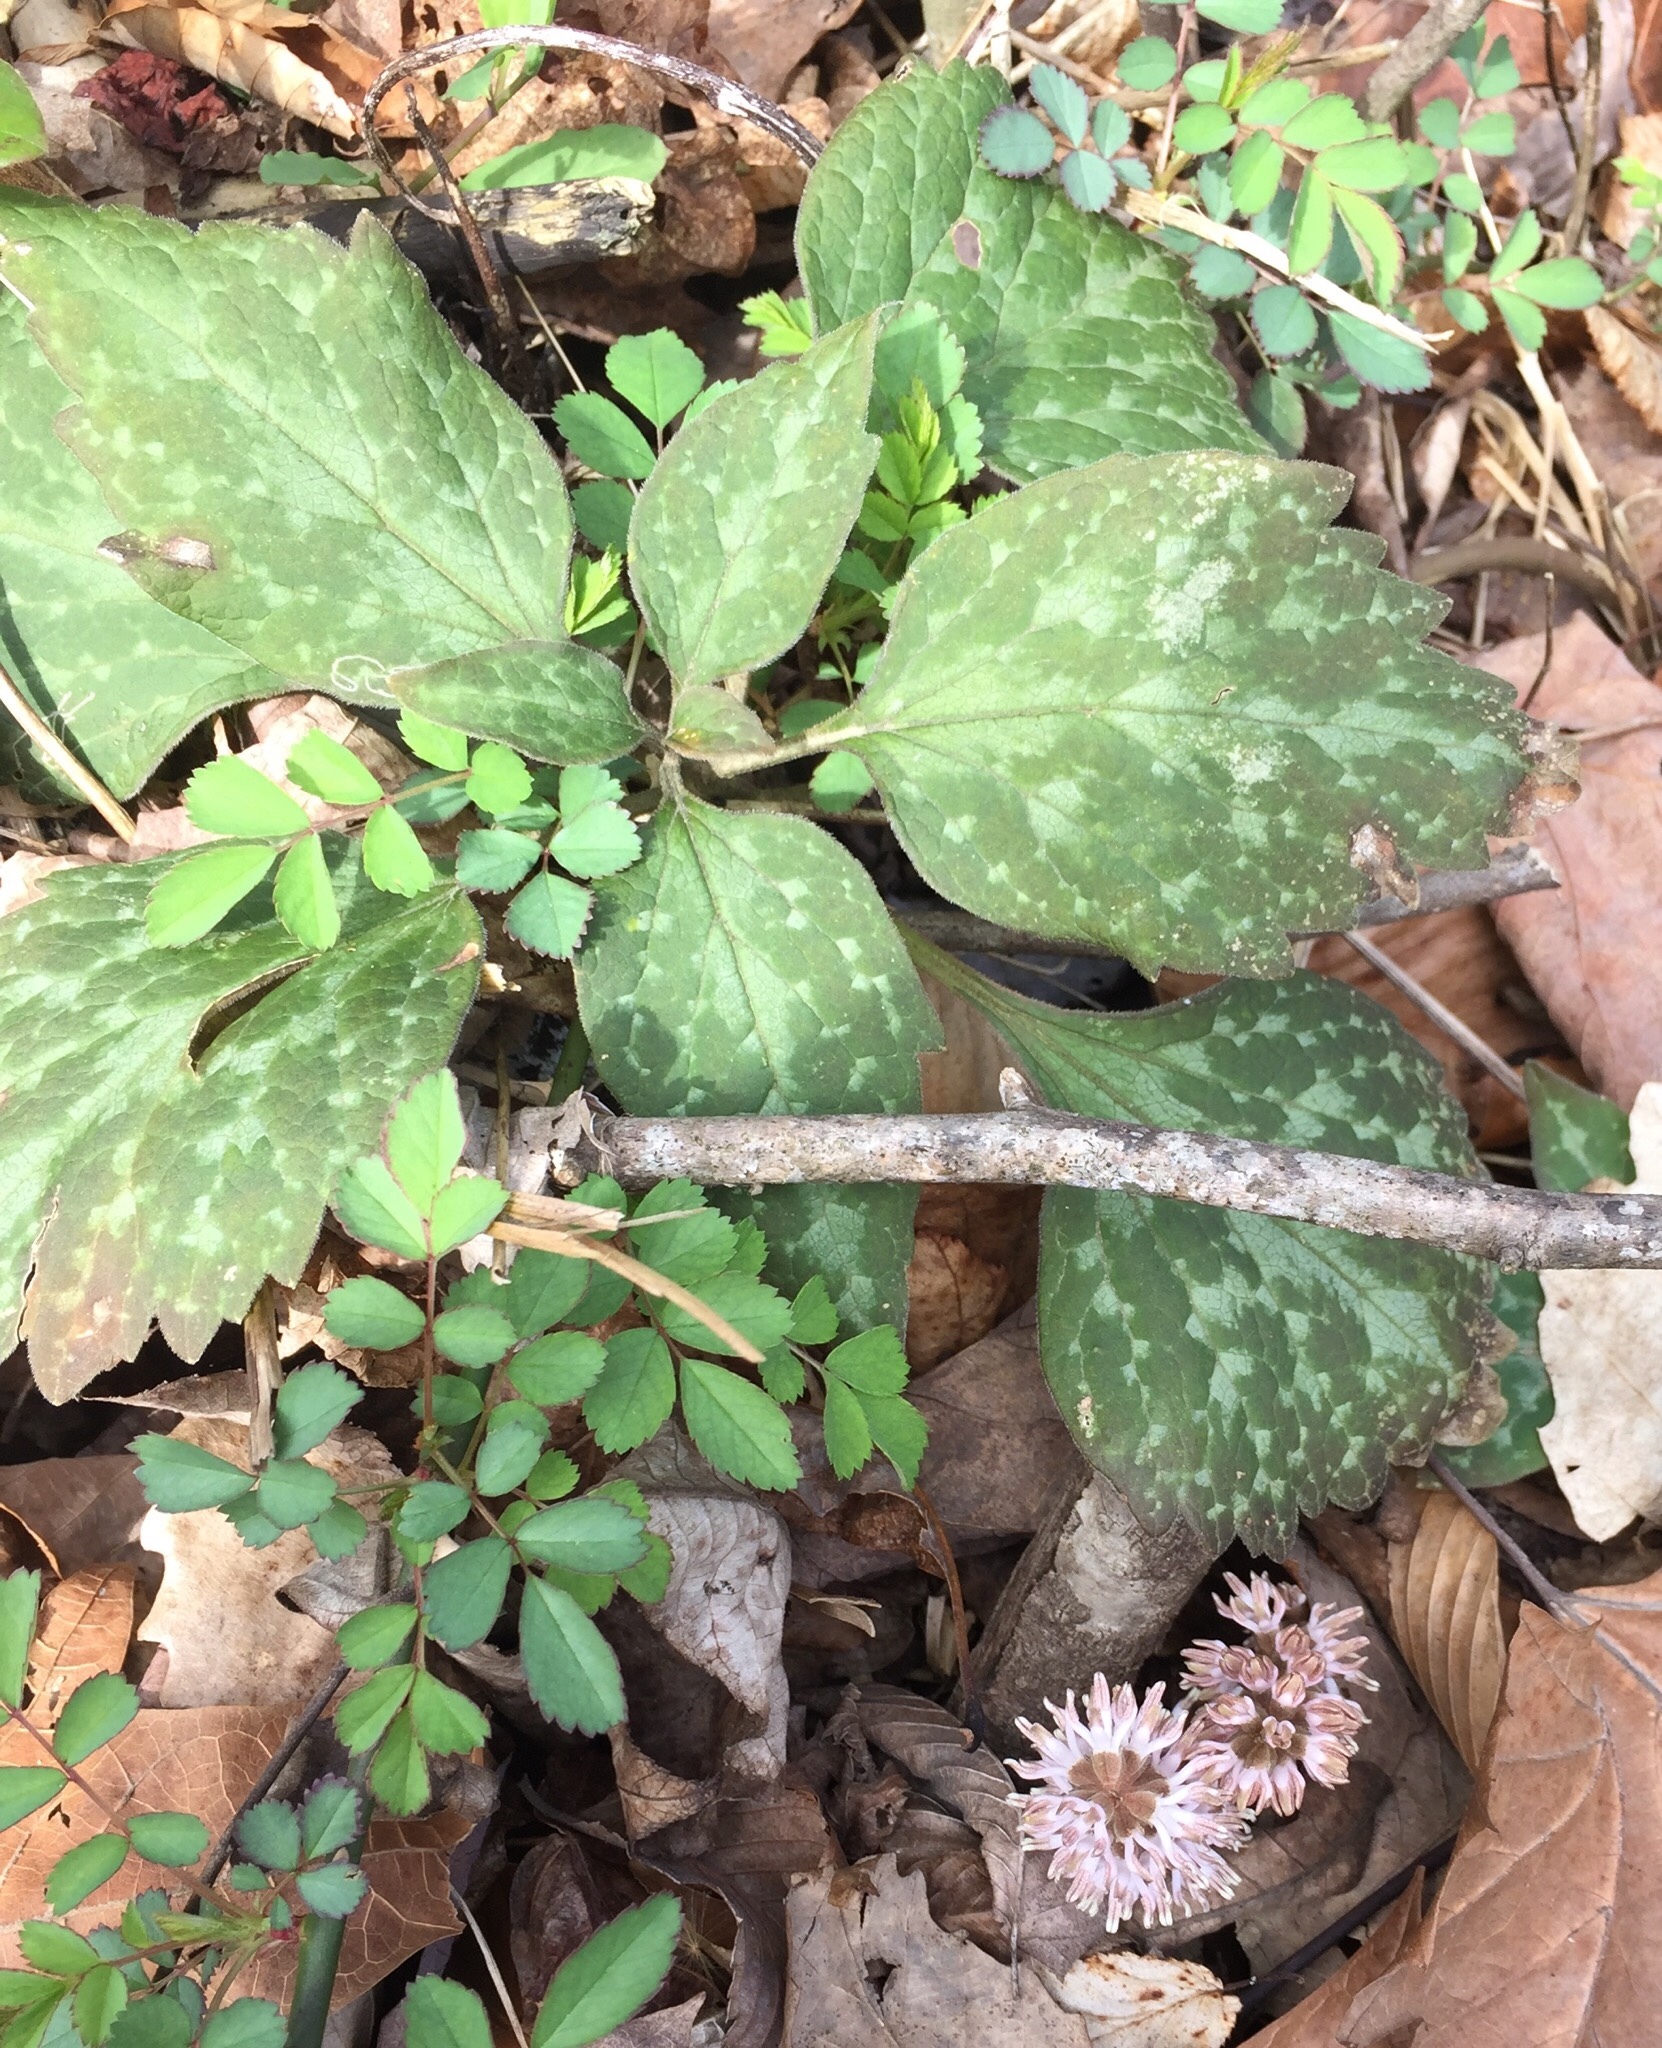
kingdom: Plantae
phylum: Tracheophyta
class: Magnoliopsida
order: Buxales
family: Buxaceae
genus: Pachysandra
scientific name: Pachysandra procumbens
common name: Mountain-spurge
